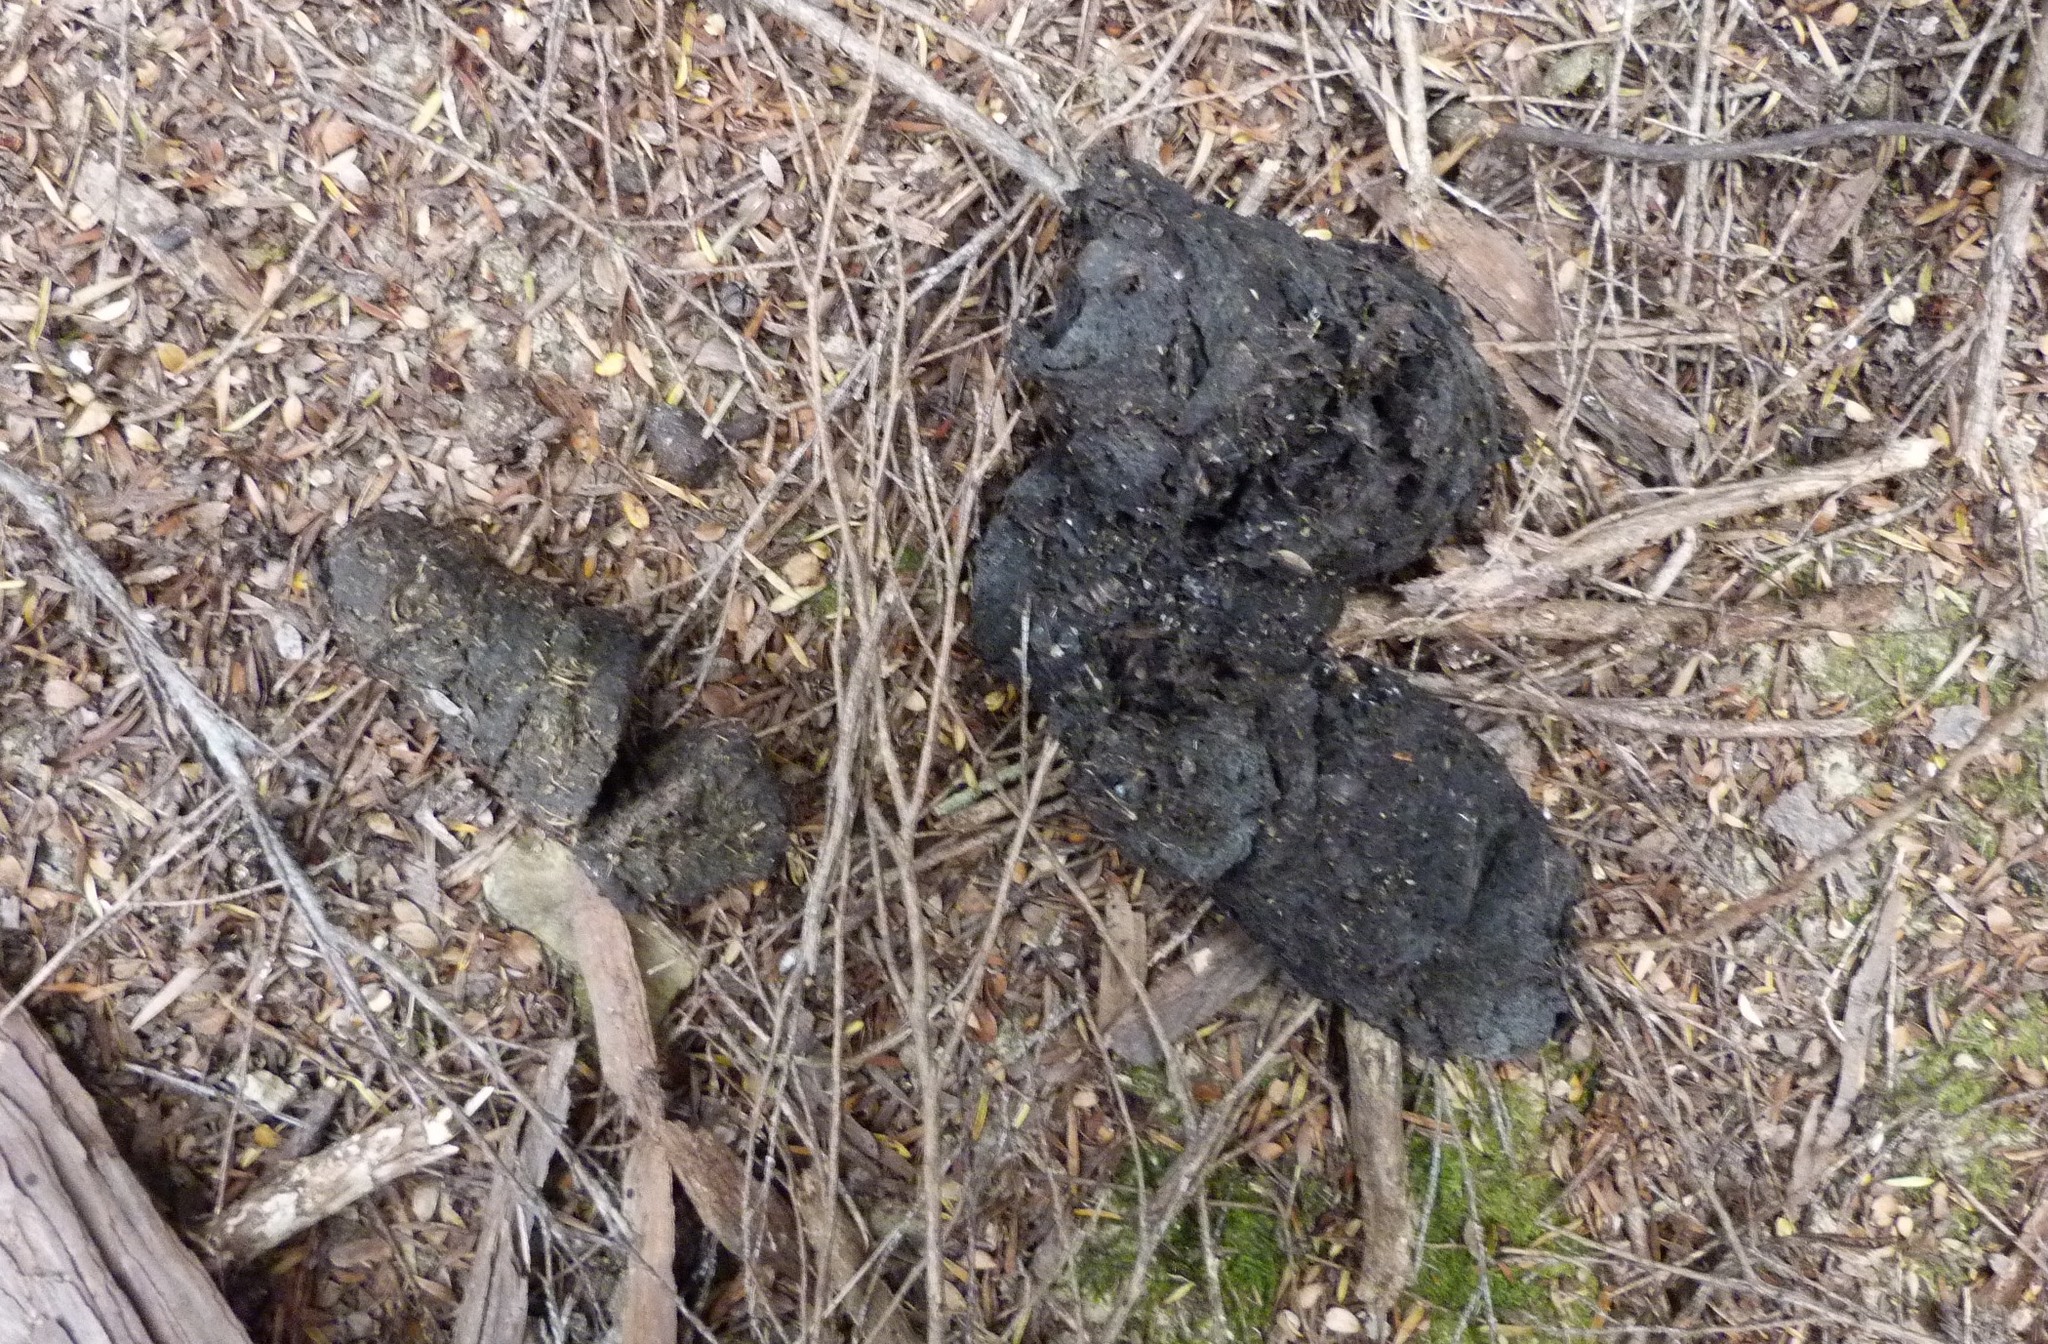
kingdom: Animalia
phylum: Chordata
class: Mammalia
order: Artiodactyla
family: Suidae
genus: Sus
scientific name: Sus scrofa
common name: Wild boar
